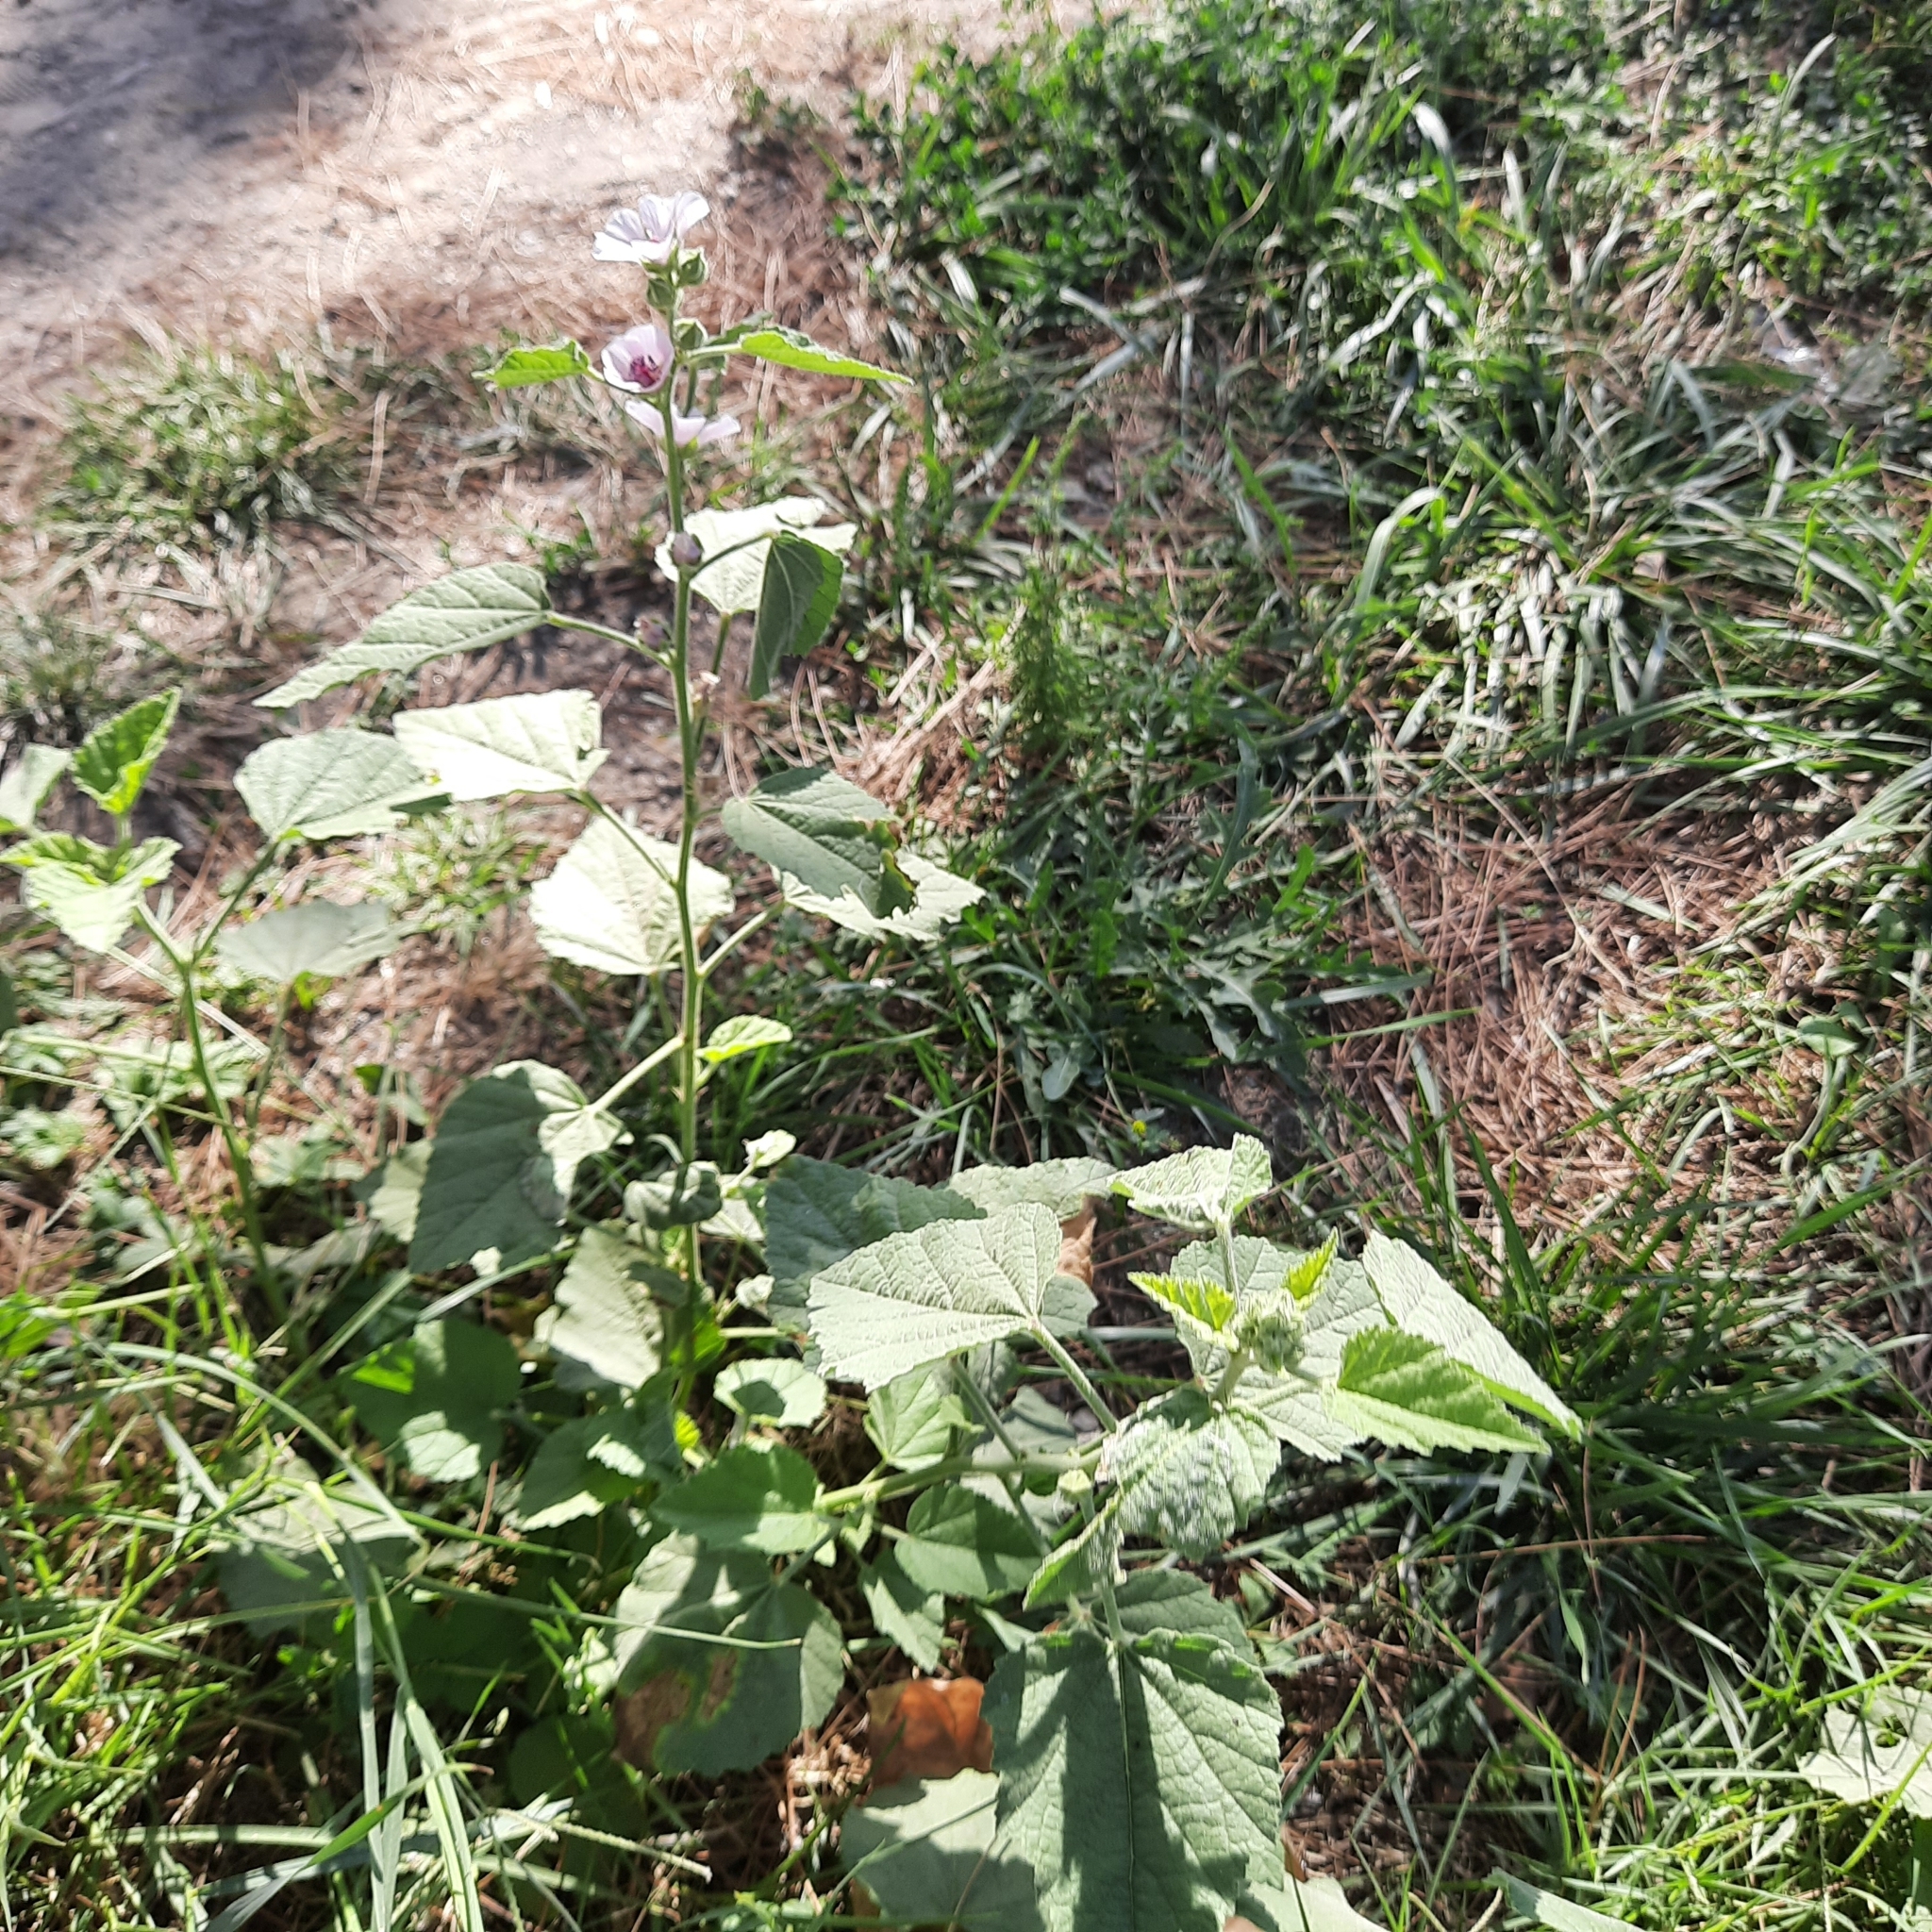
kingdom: Plantae
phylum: Tracheophyta
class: Magnoliopsida
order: Malvales
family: Malvaceae
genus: Althaea
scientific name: Althaea officinalis
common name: Marsh-mallow
